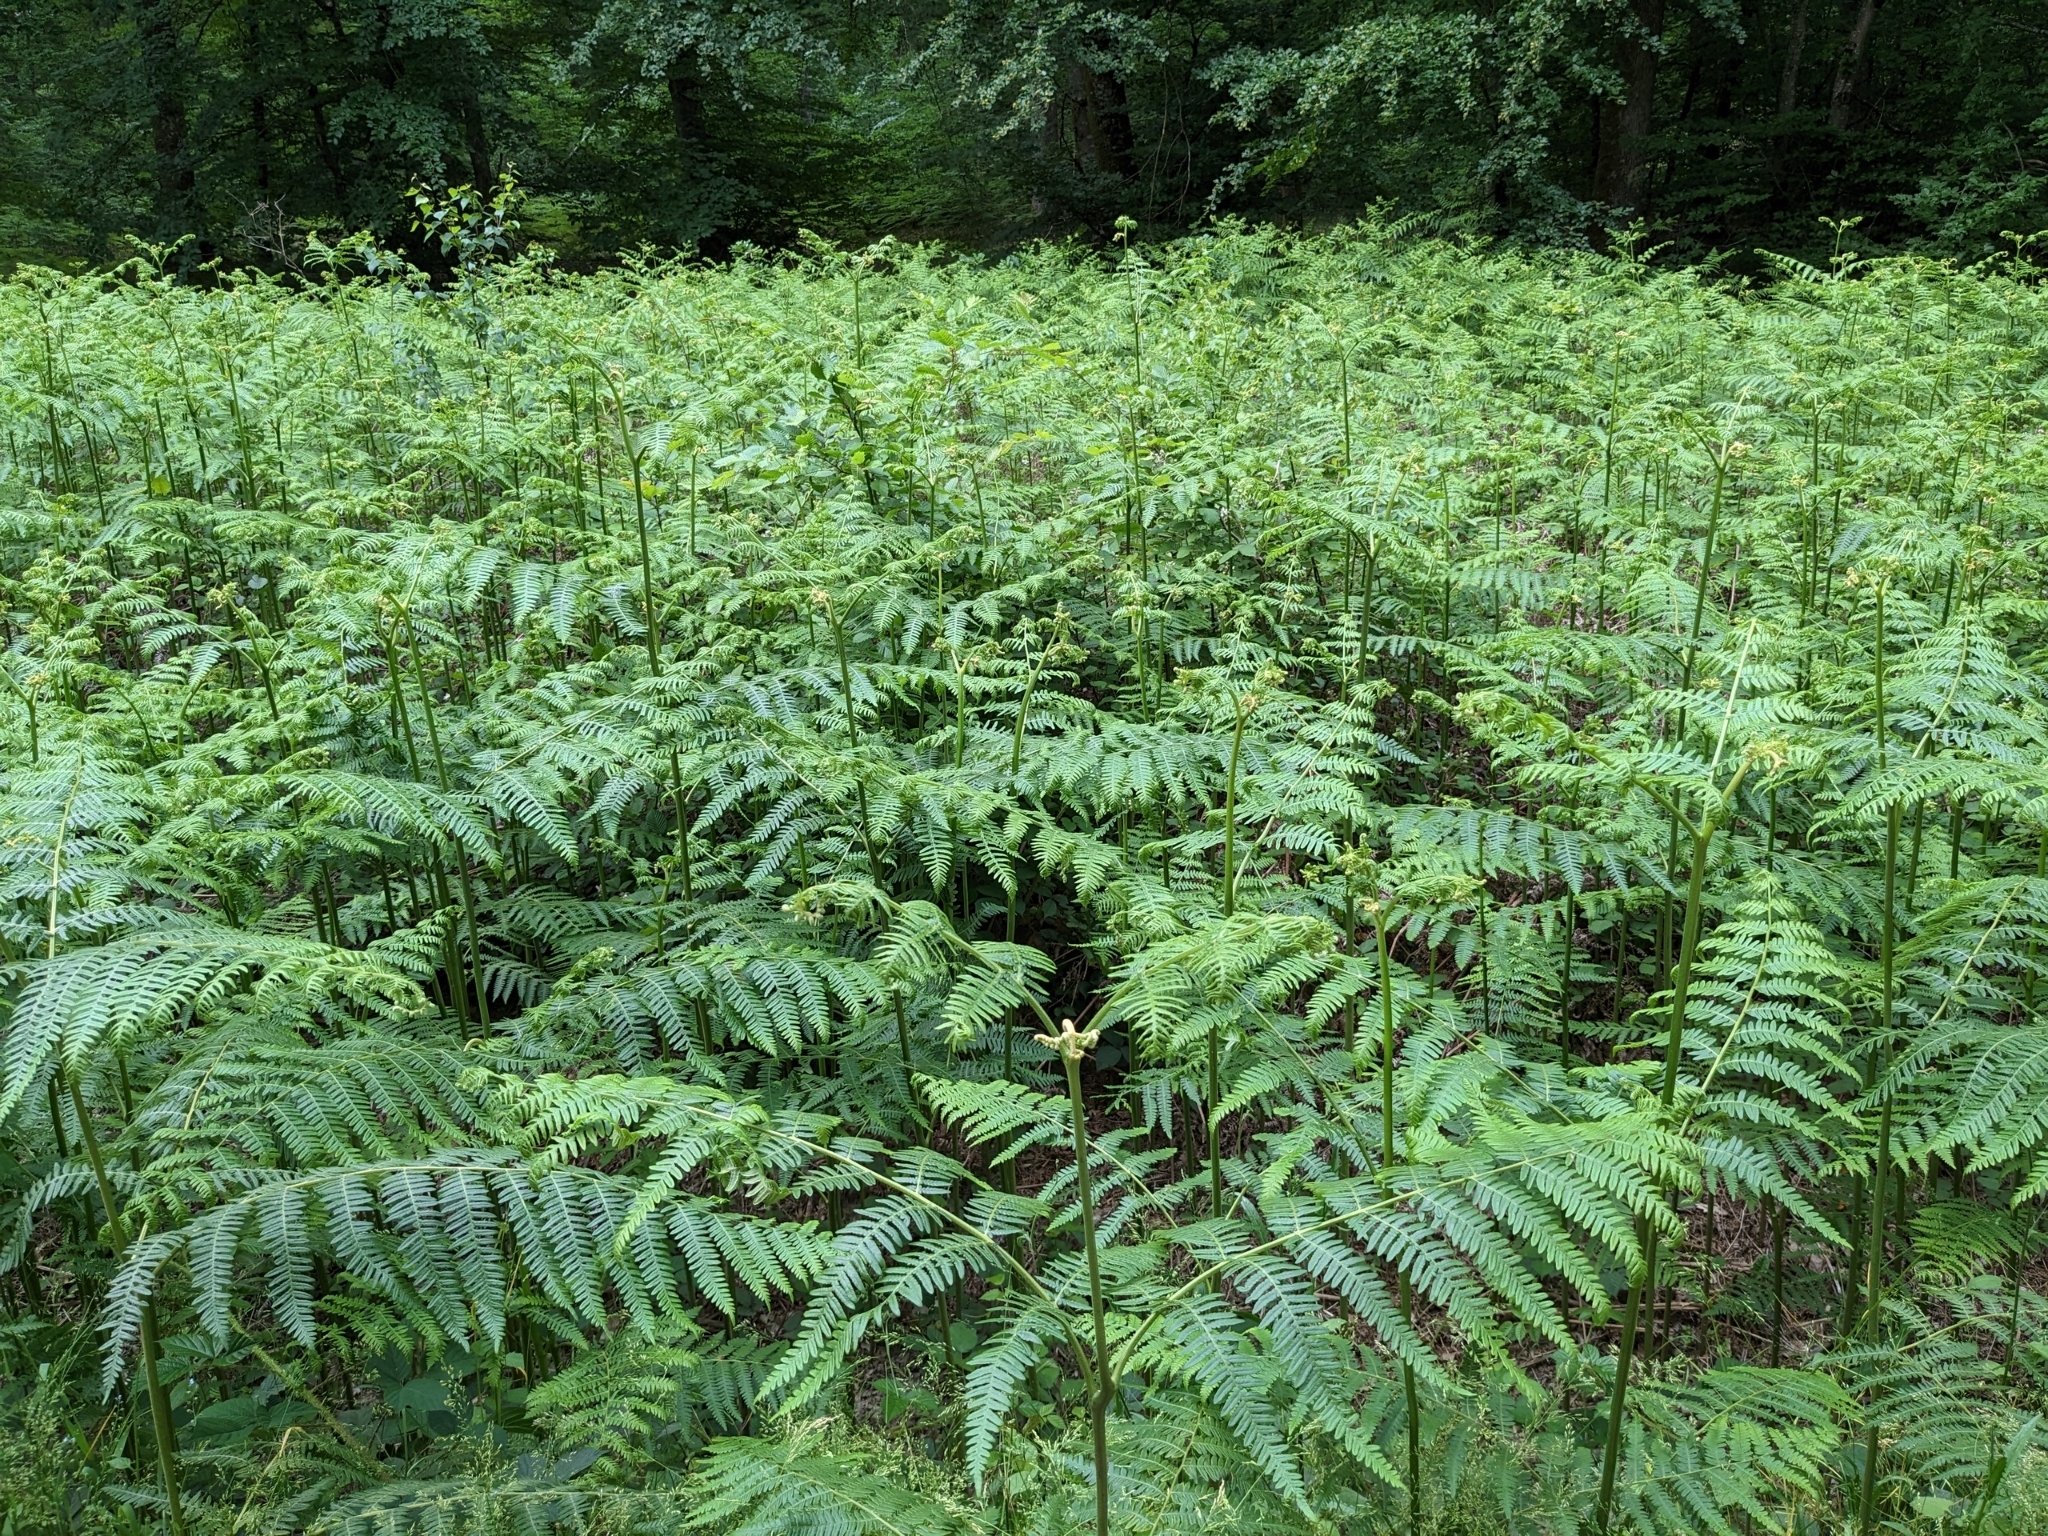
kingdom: Plantae
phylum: Tracheophyta
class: Polypodiopsida
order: Polypodiales
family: Dennstaedtiaceae
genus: Pteridium
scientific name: Pteridium aquilinum
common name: Bracken
